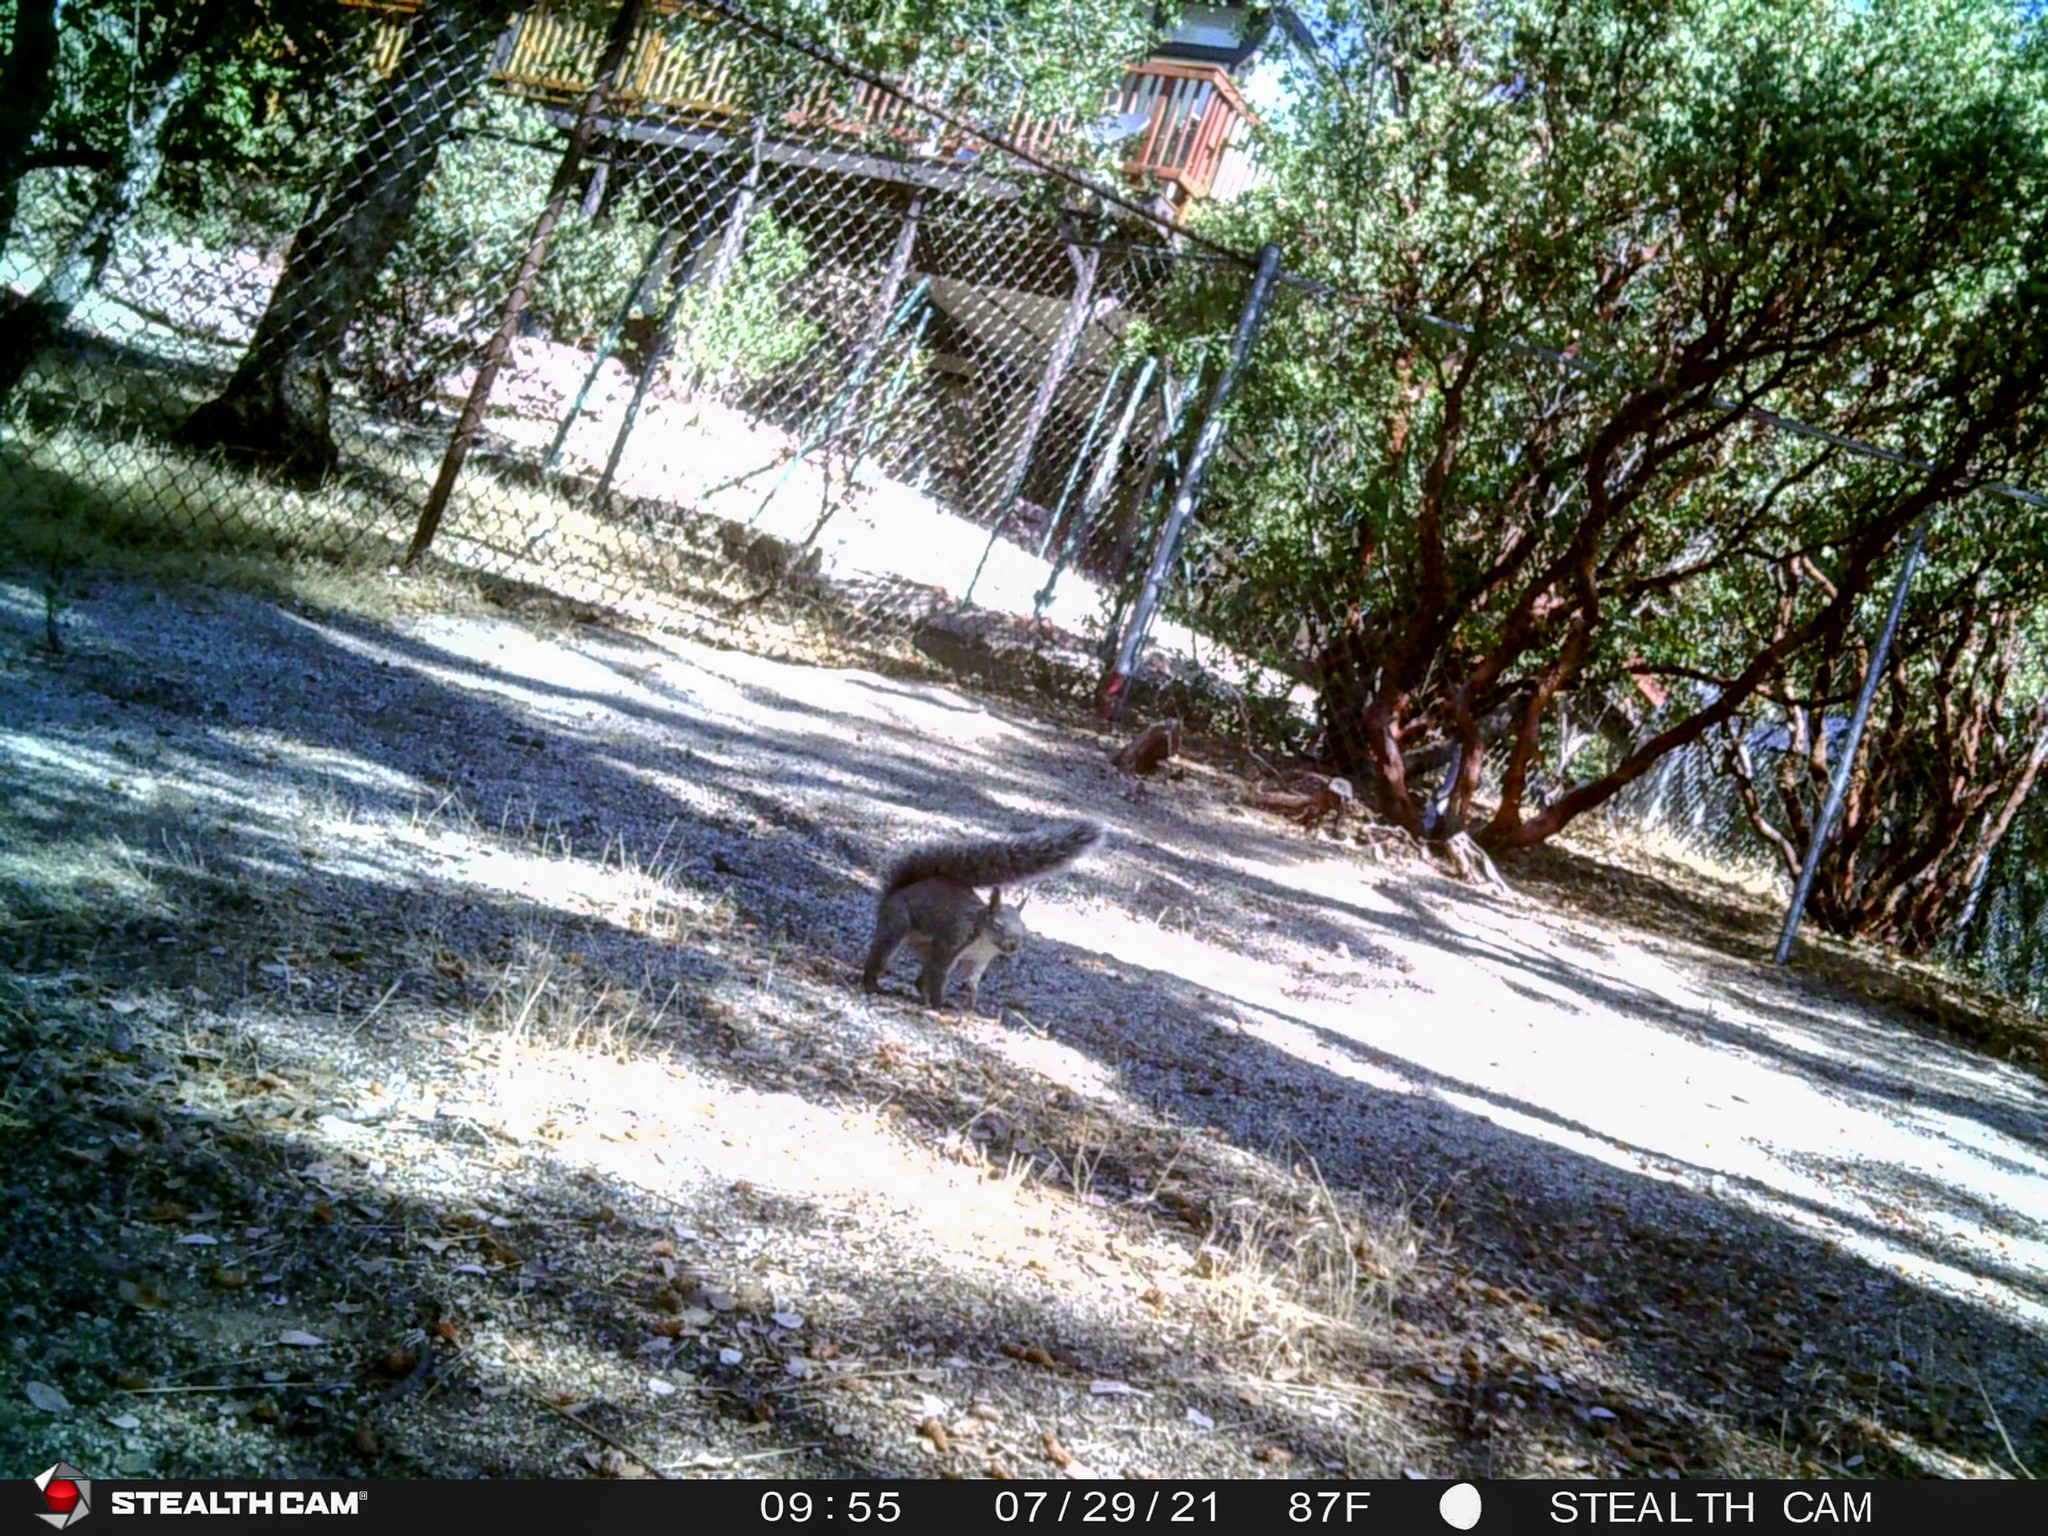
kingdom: Animalia
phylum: Chordata
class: Mammalia
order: Rodentia
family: Sciuridae
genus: Sciurus
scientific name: Sciurus griseus
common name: Western gray squirrel
